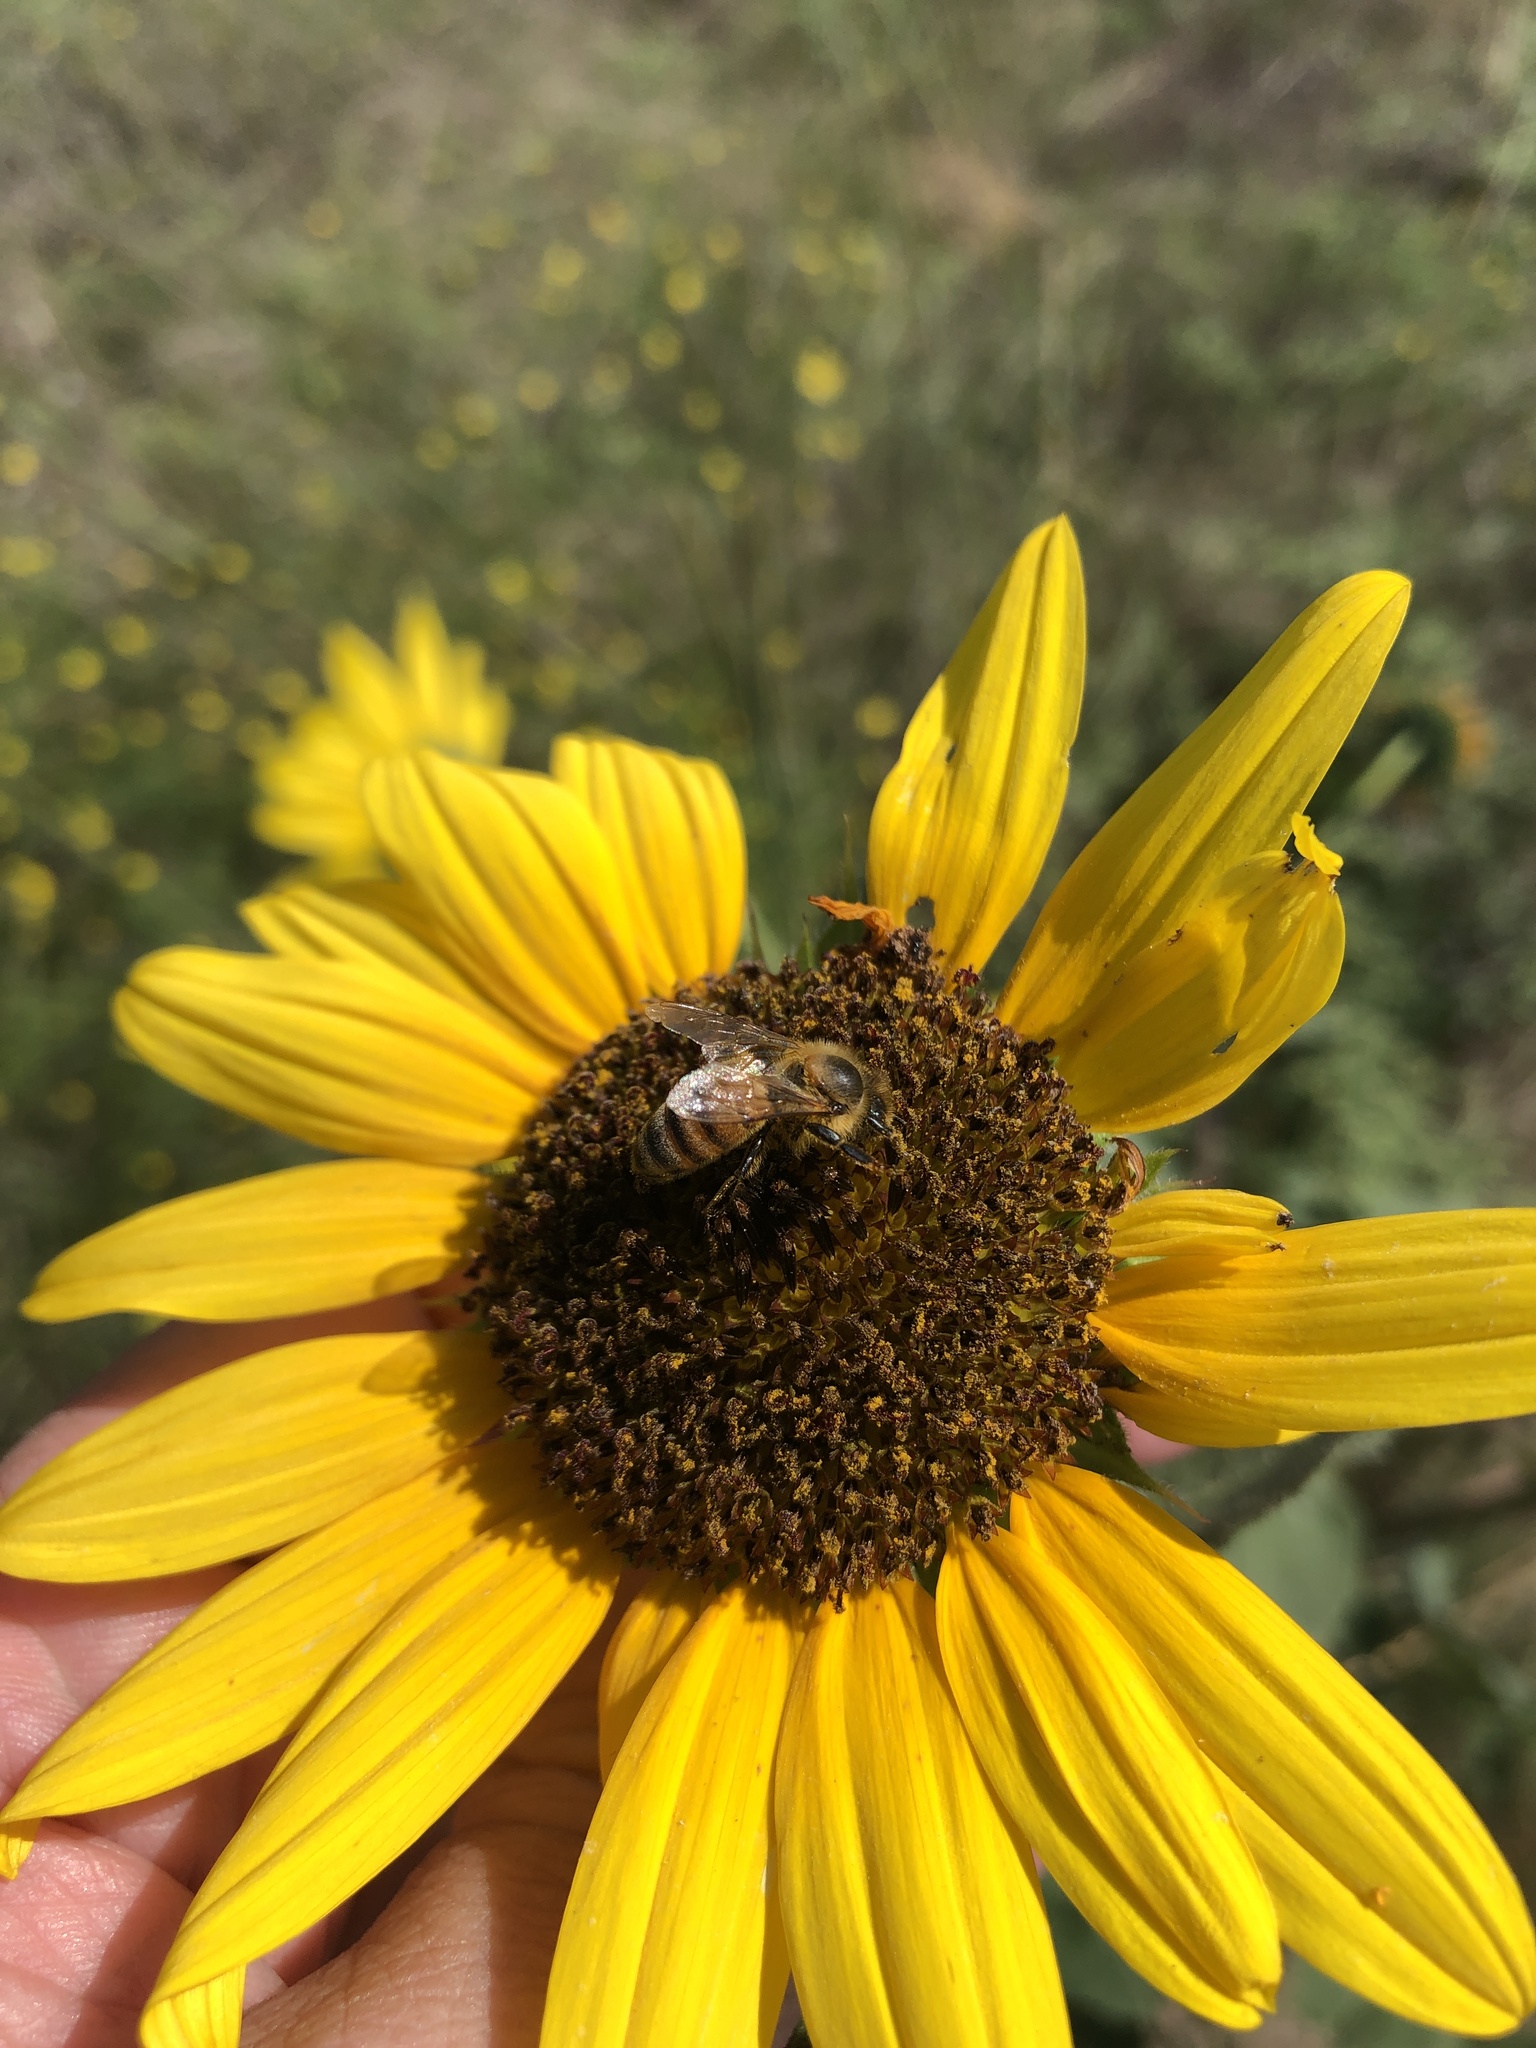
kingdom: Animalia
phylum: Arthropoda
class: Insecta
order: Hymenoptera
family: Apidae
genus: Apis
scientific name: Apis mellifera
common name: Honey bee
